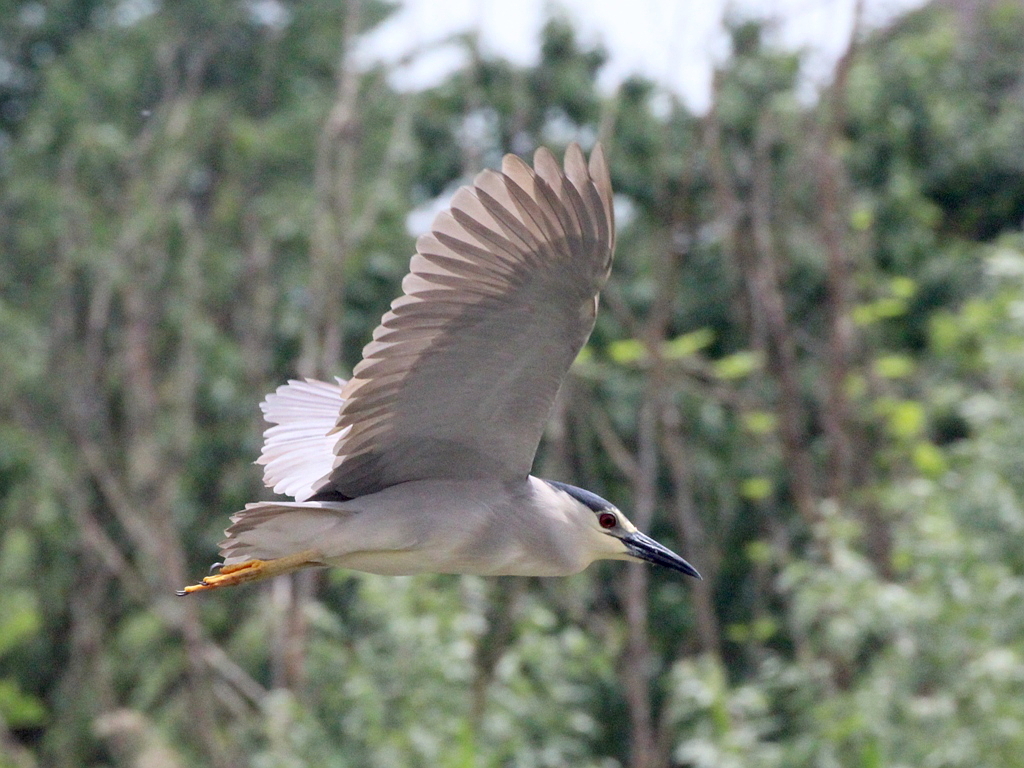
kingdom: Animalia
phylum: Chordata
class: Aves
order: Pelecaniformes
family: Ardeidae
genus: Nycticorax
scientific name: Nycticorax nycticorax
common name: Black-crowned night heron
